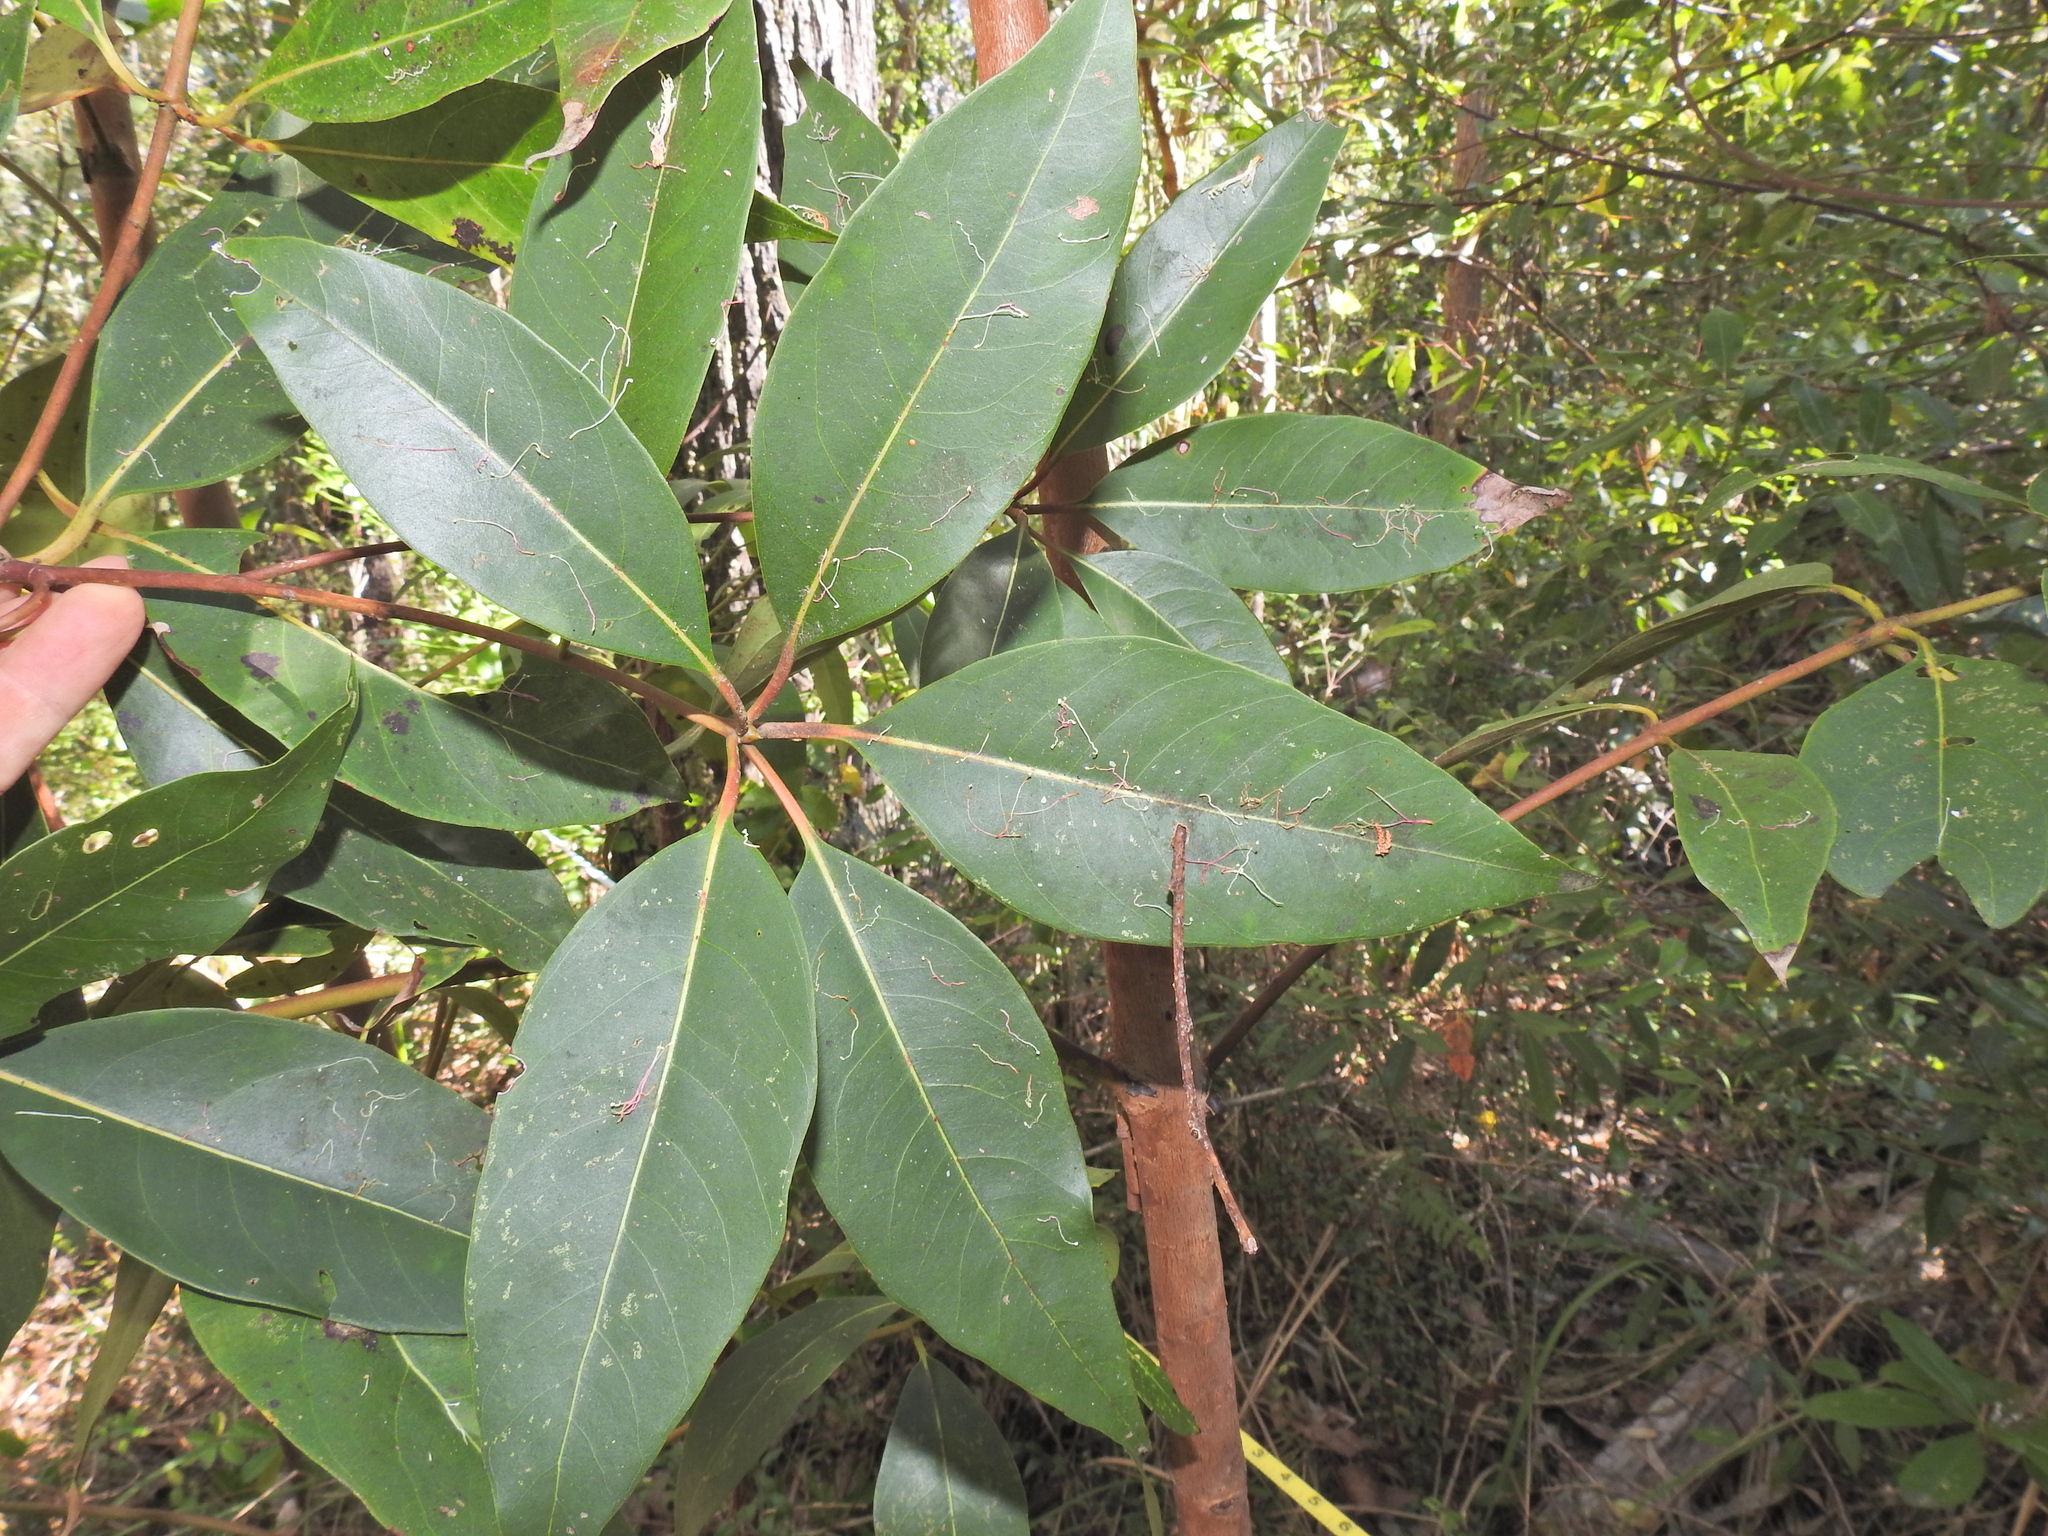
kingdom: Plantae
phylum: Tracheophyta
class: Magnoliopsida
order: Myrtales
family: Myrtaceae
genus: Lophostemon
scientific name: Lophostemon confertus
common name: Brisbane box
